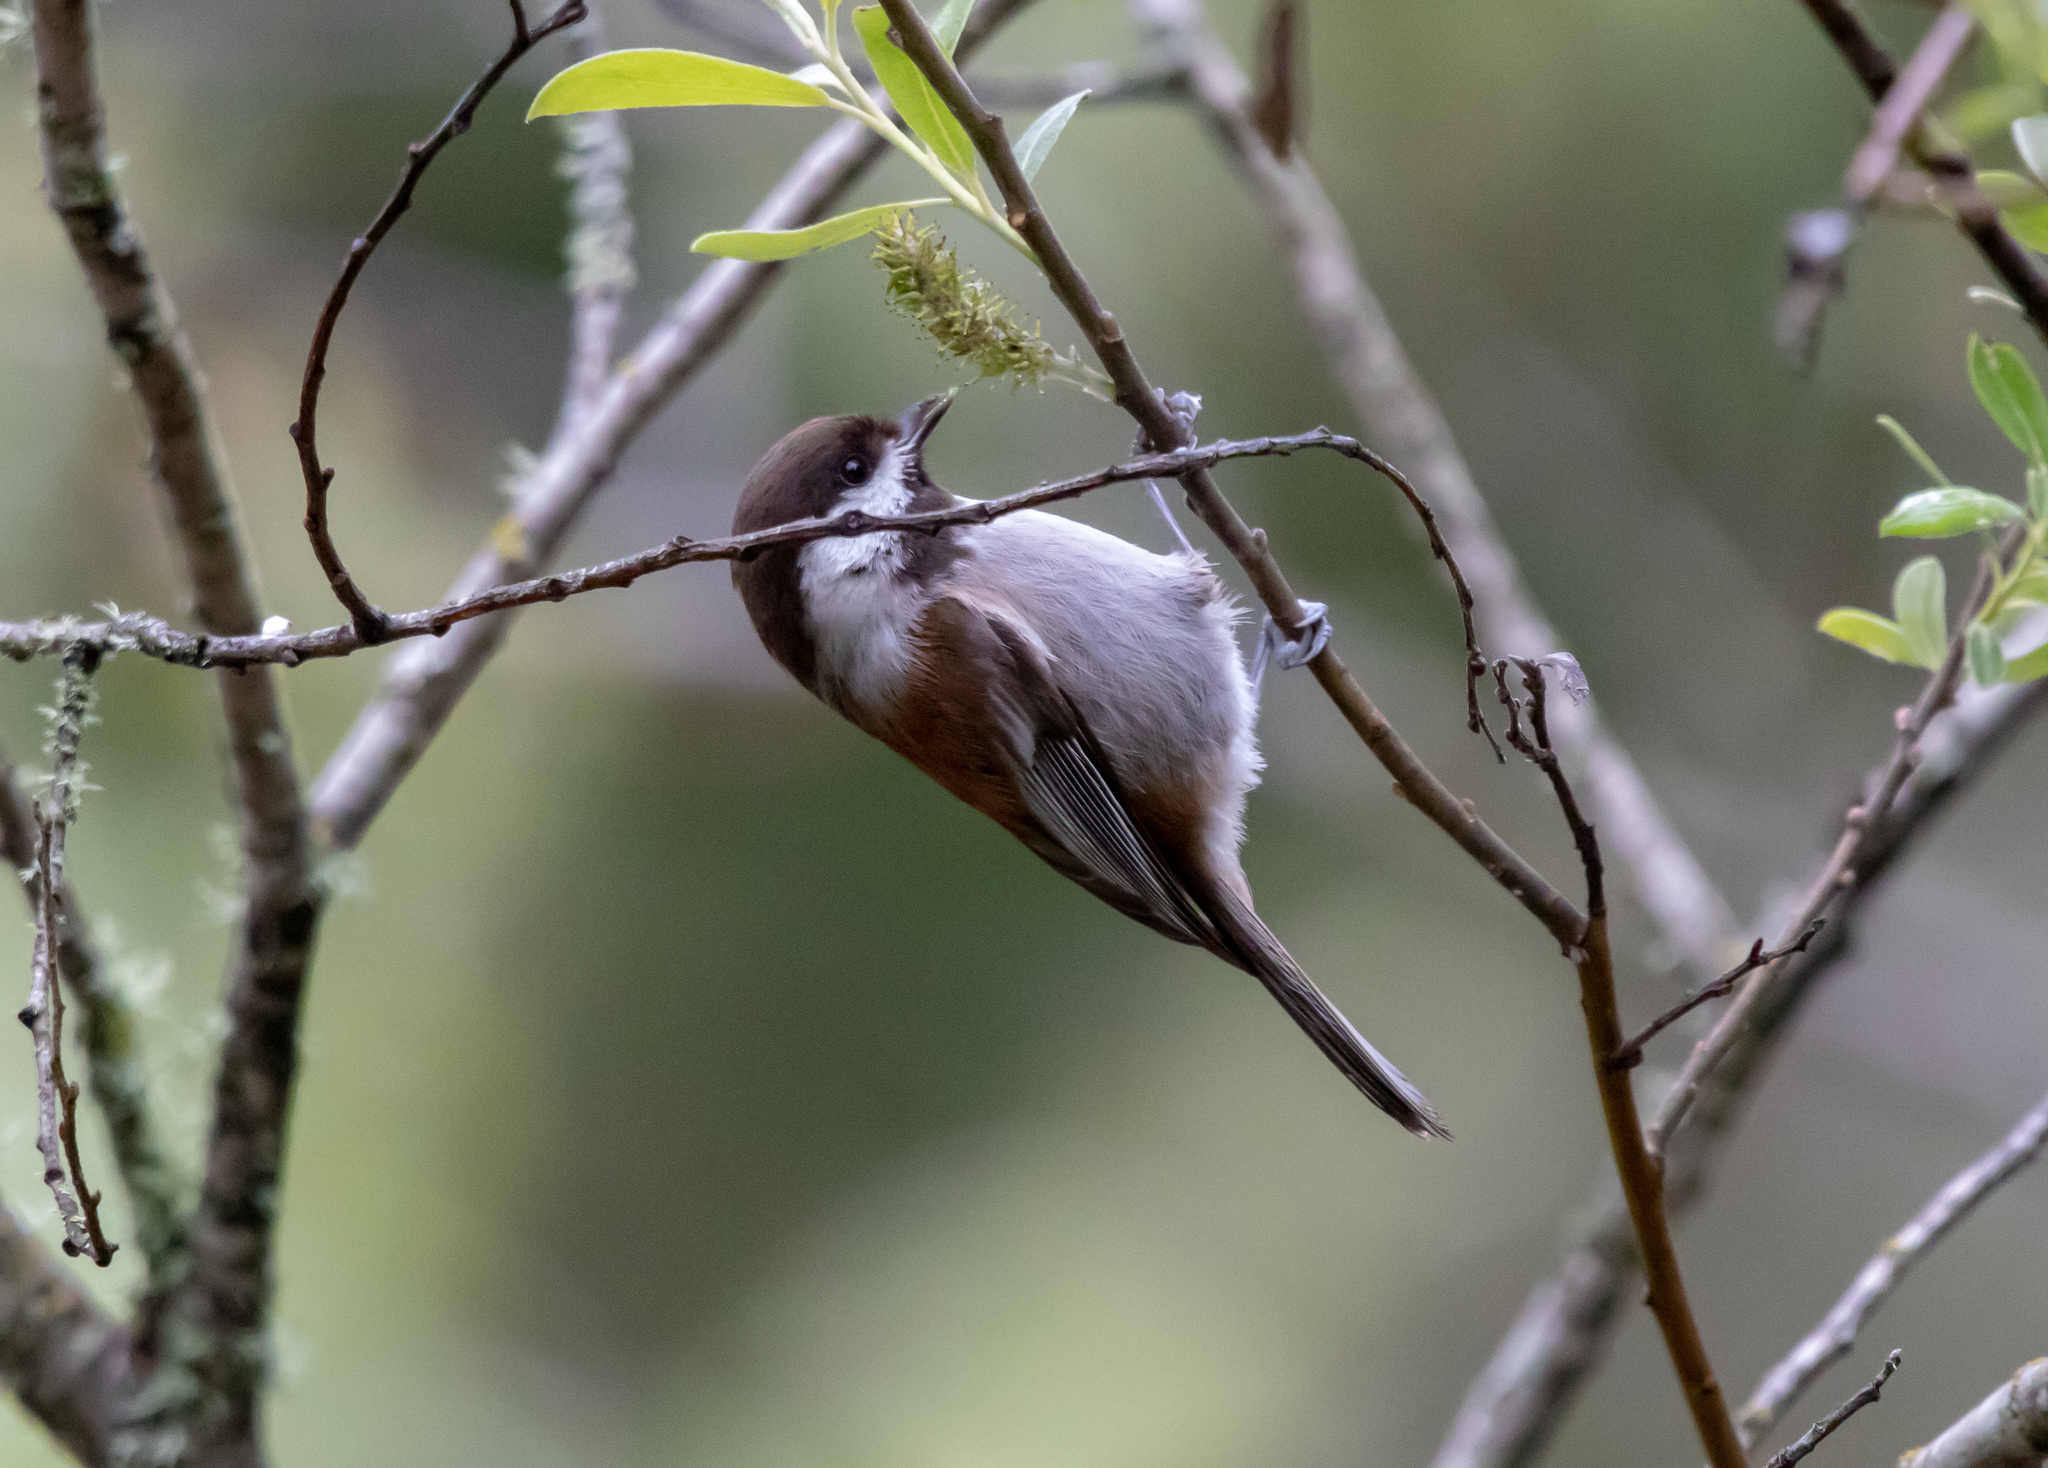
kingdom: Animalia
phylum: Chordata
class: Aves
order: Passeriformes
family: Paridae
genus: Poecile
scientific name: Poecile rufescens
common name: Chestnut-backed chickadee
